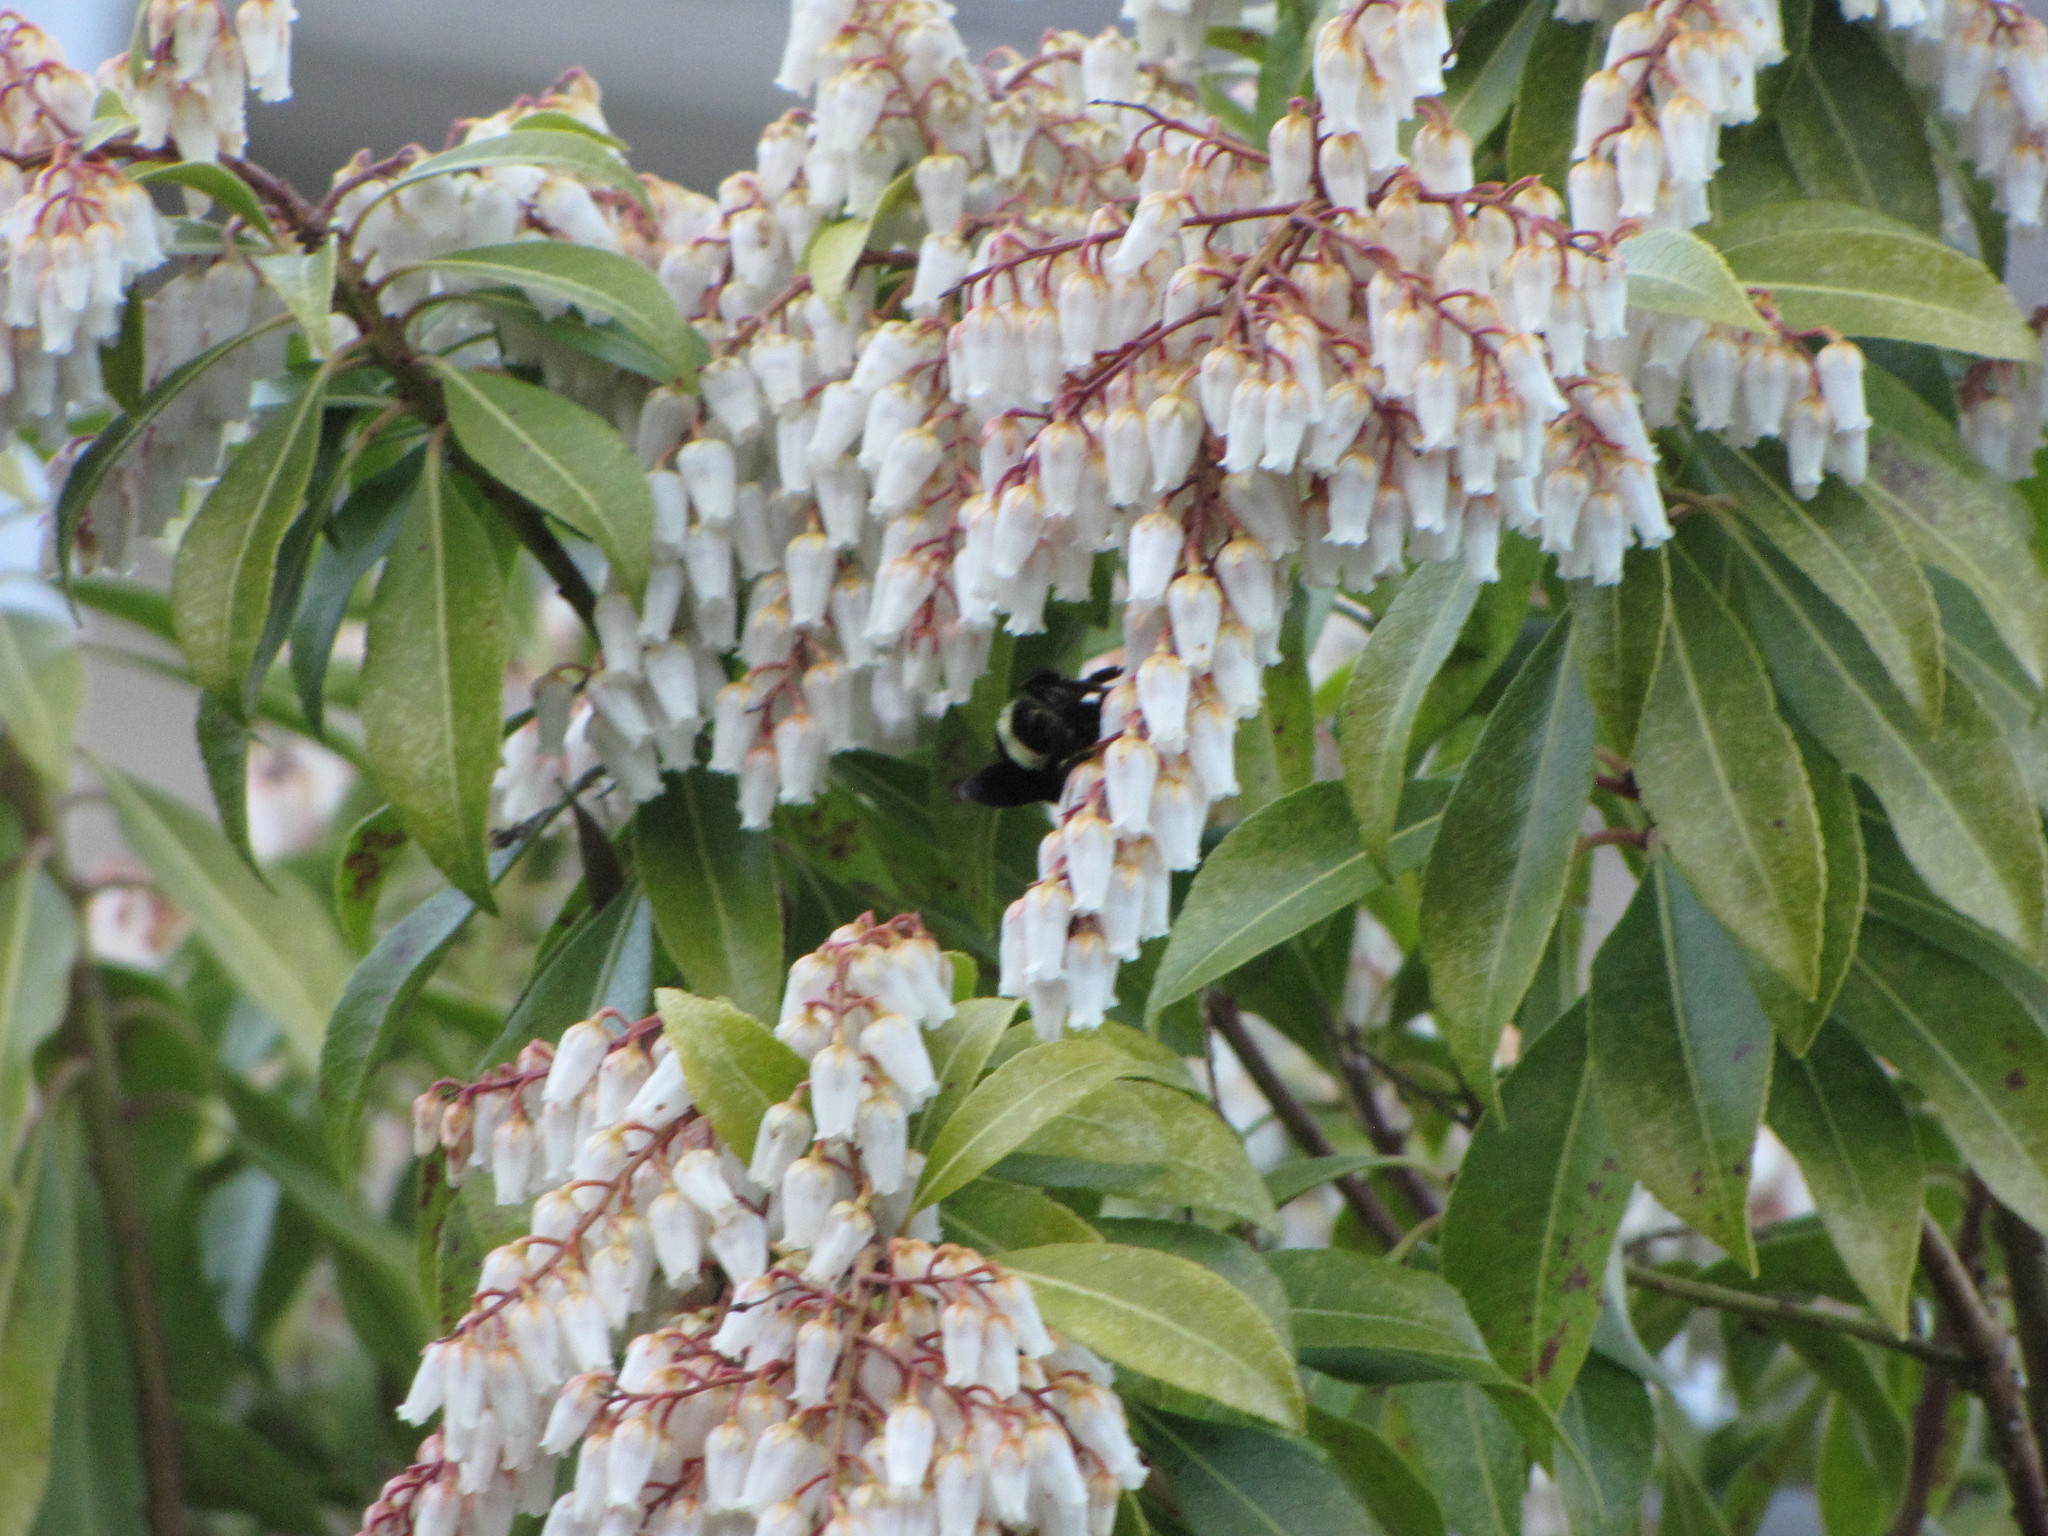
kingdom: Animalia
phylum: Arthropoda
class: Insecta
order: Hymenoptera
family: Apidae
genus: Bombus
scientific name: Bombus vosnesenskii
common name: Vosnesensky bumble bee
